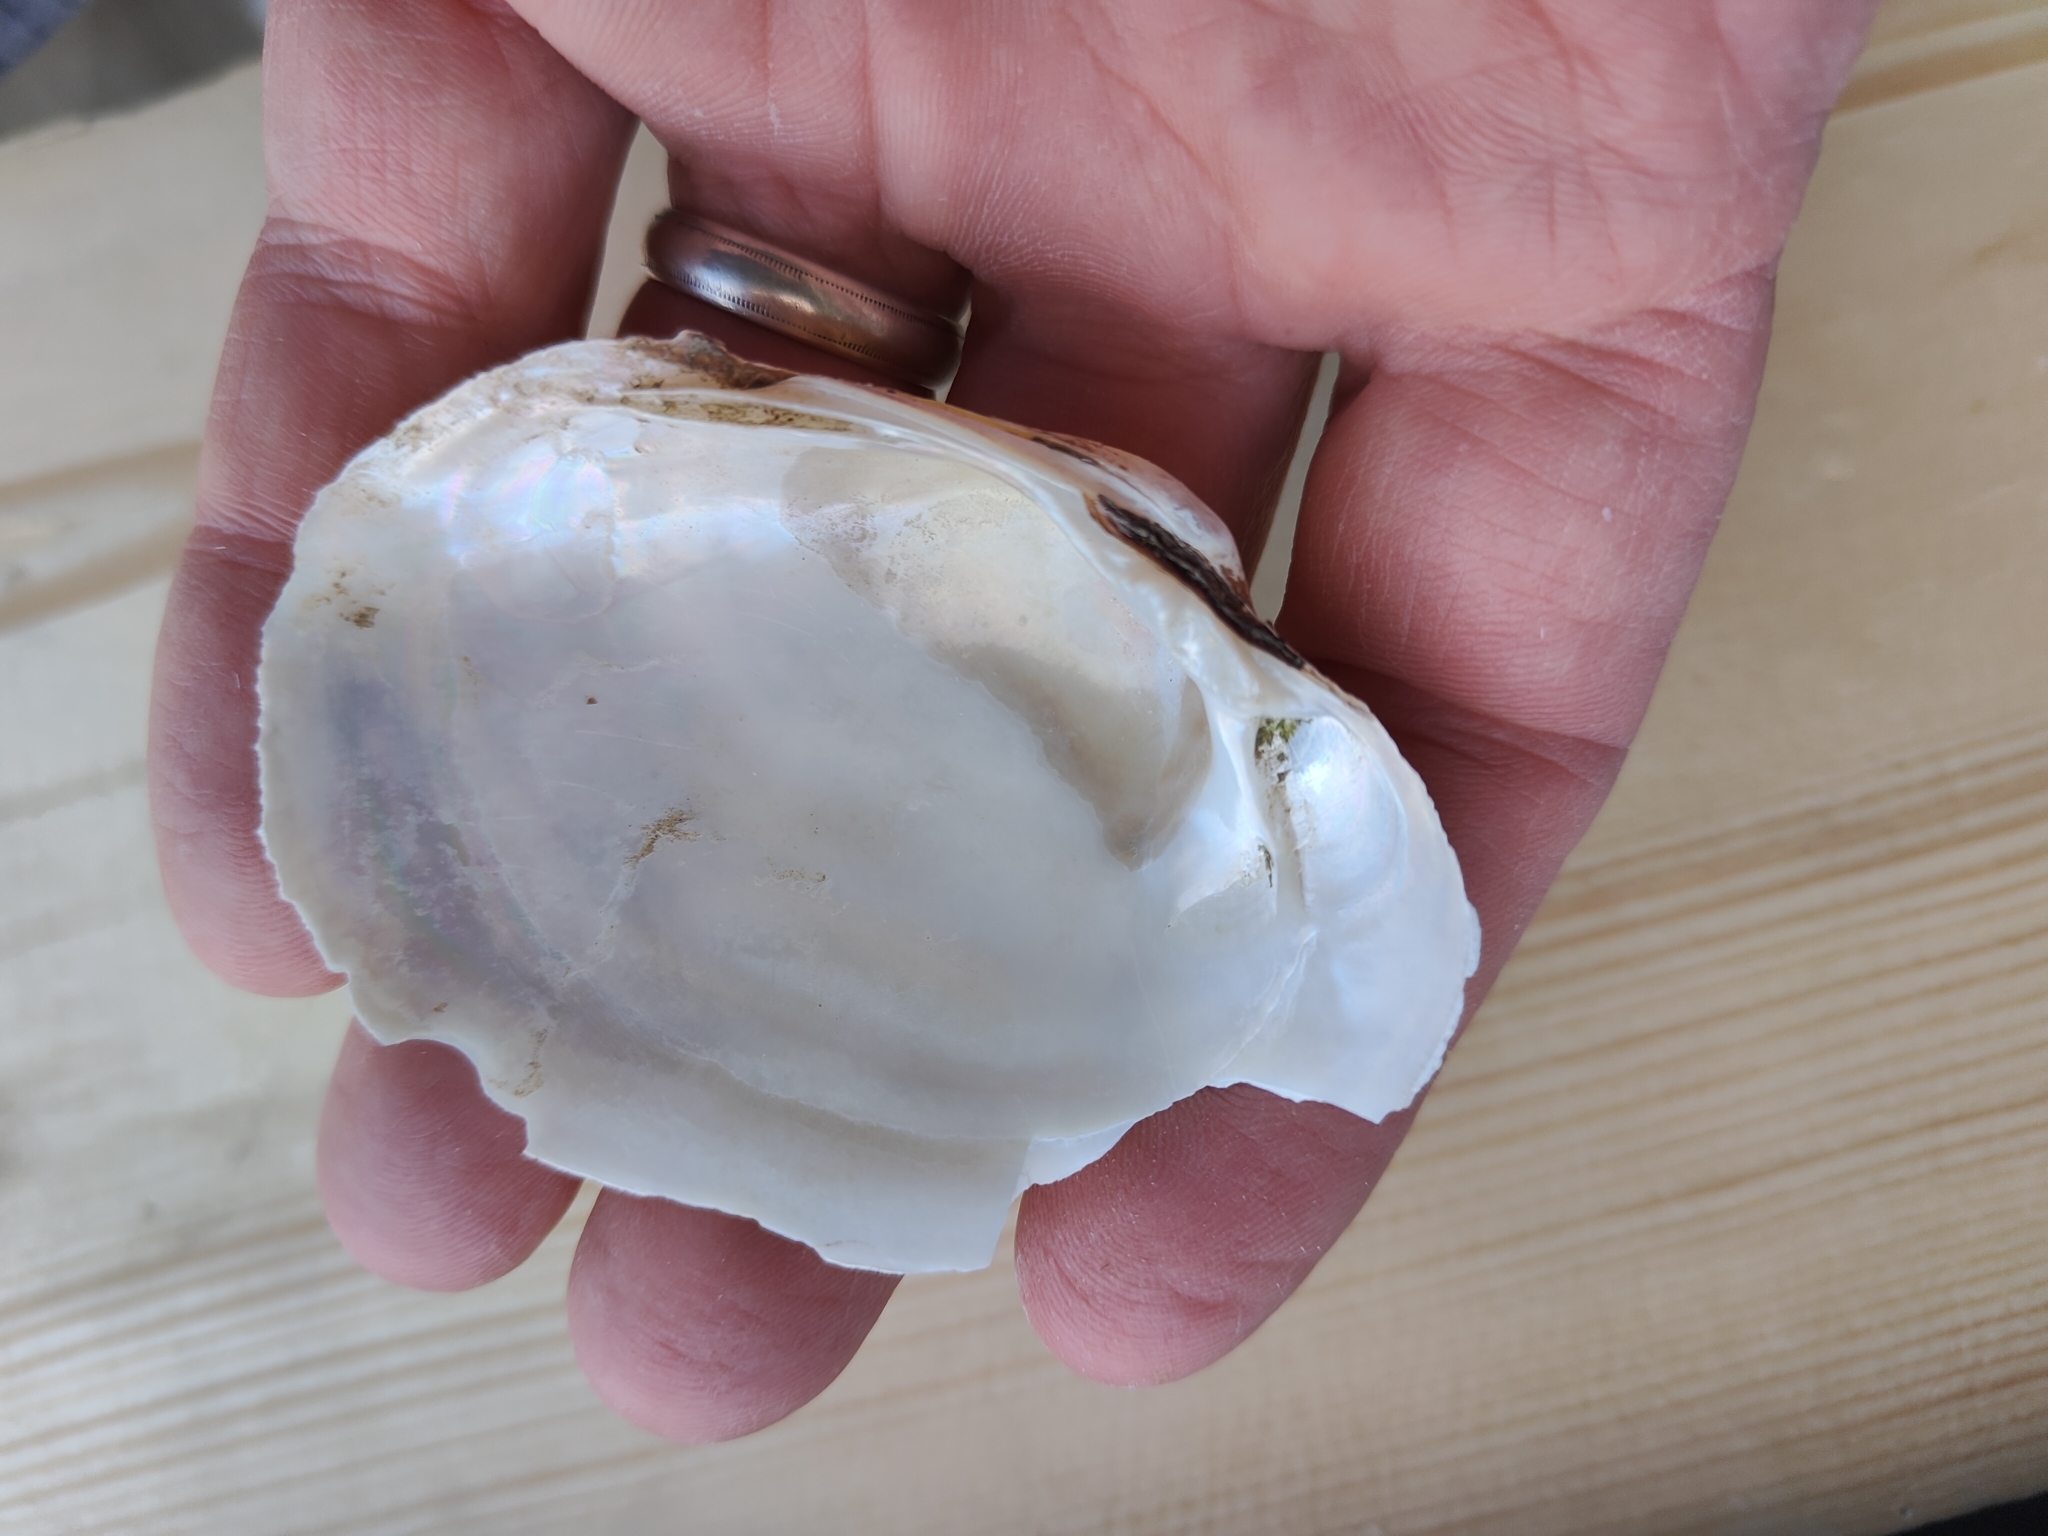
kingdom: Animalia
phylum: Mollusca
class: Bivalvia
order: Unionida
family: Unionidae
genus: Lampsilis
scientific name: Lampsilis cardium
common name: Plain pocketbook
